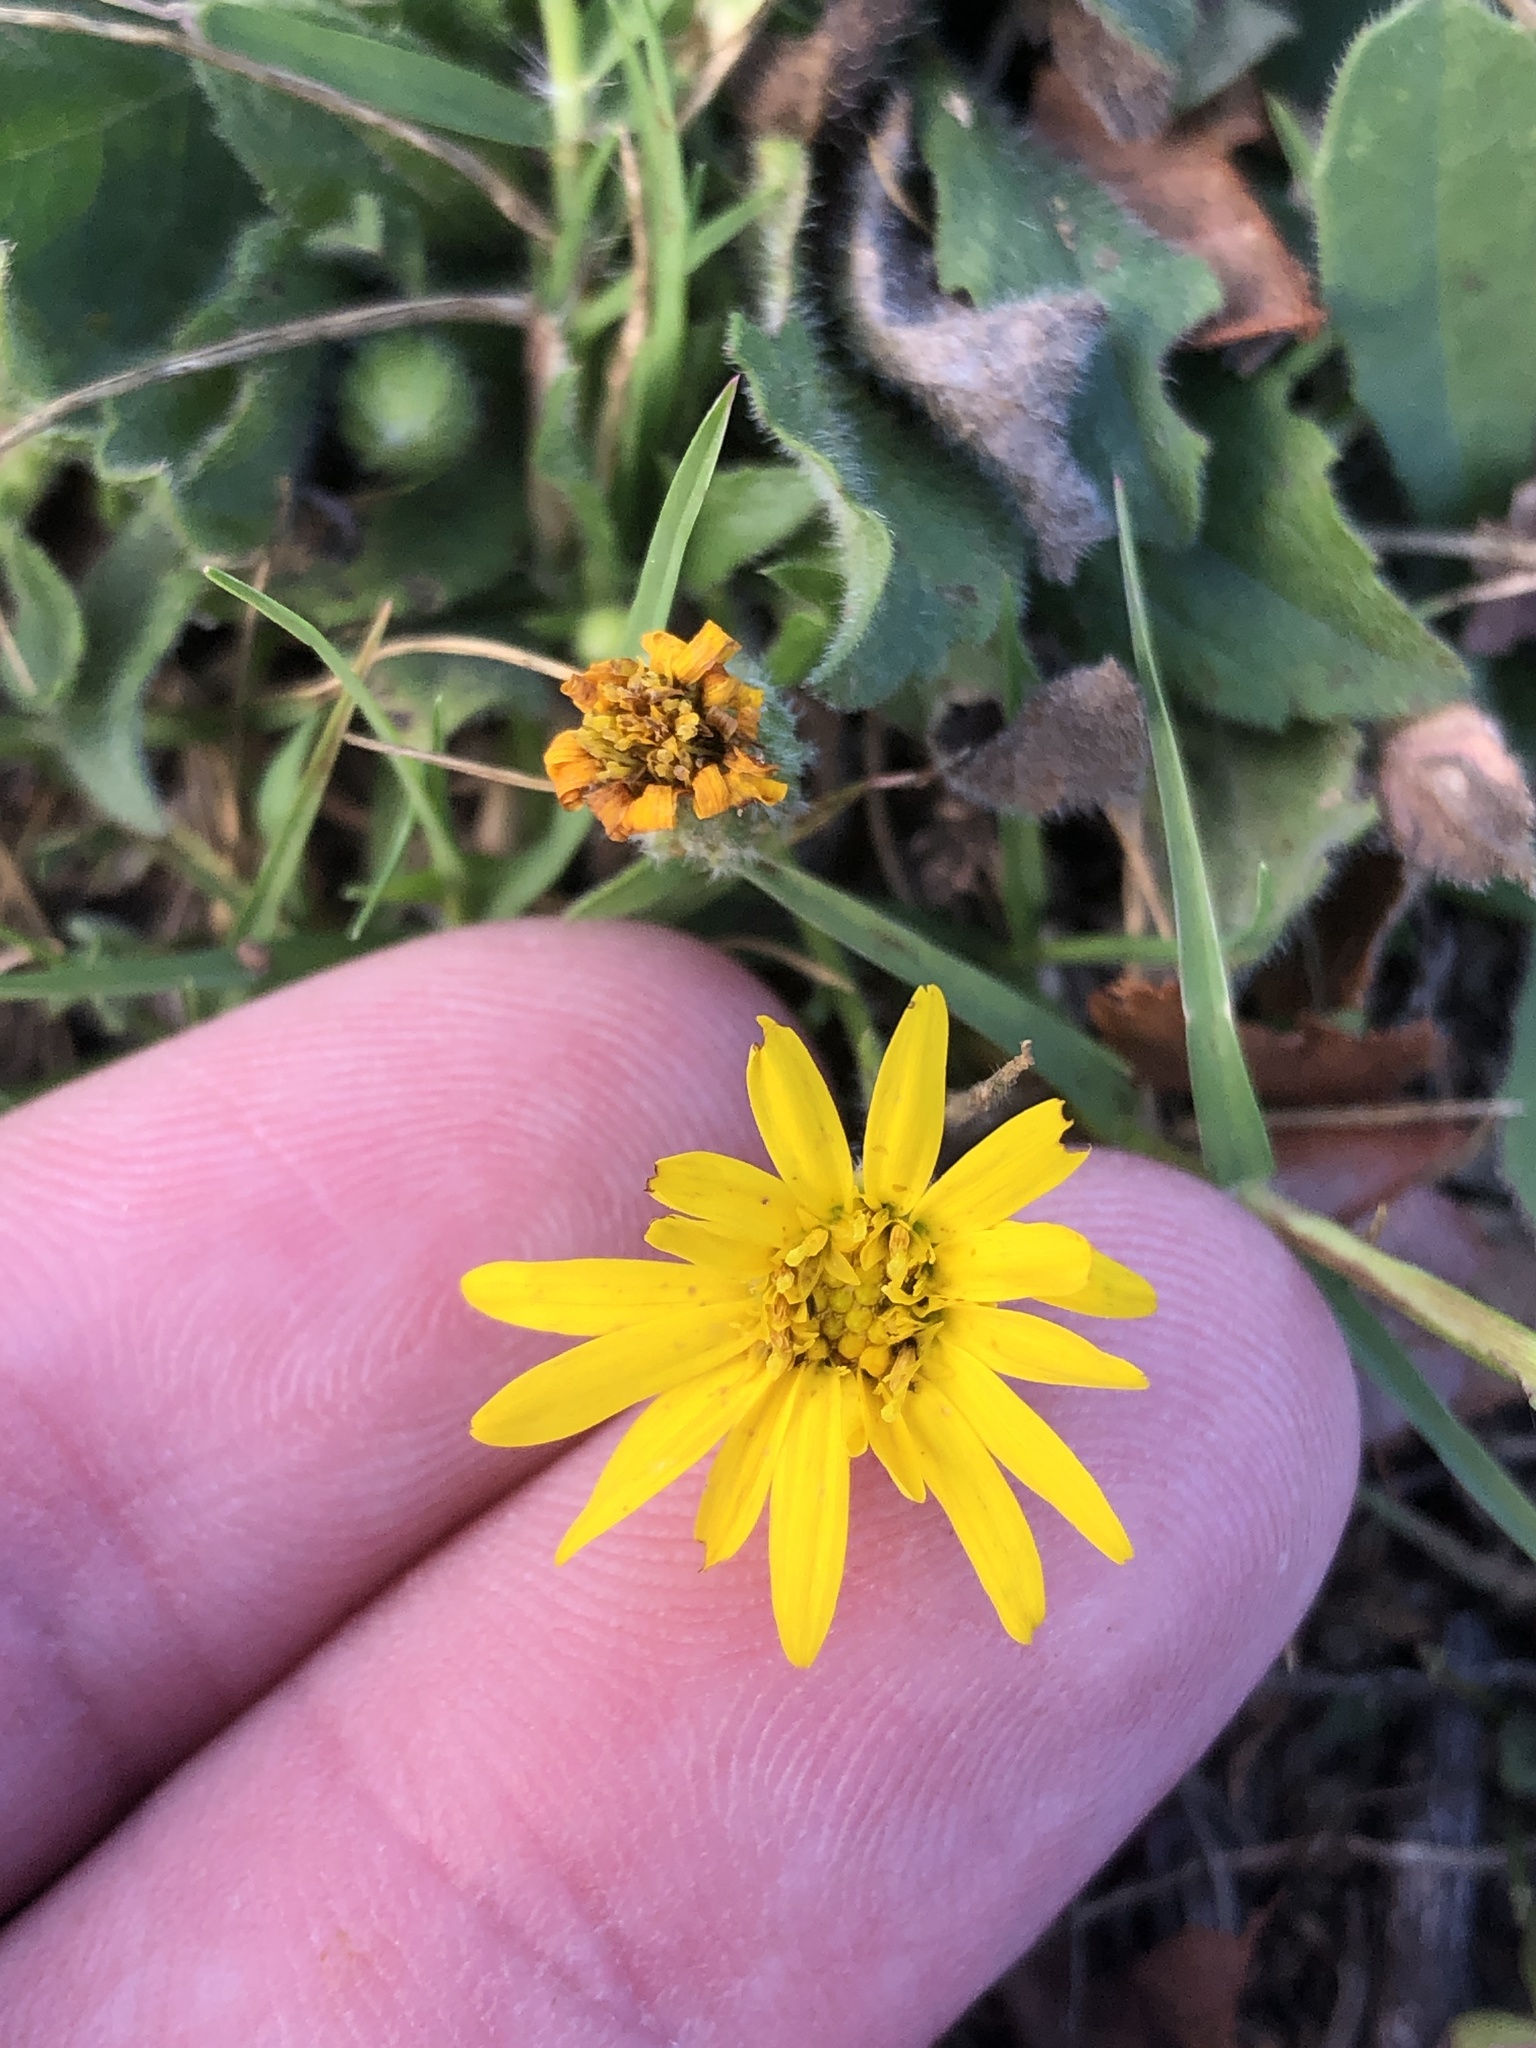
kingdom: Plantae
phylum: Tracheophyta
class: Magnoliopsida
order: Asterales
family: Asteraceae
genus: Heterotheca
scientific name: Heterotheca subaxillaris
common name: Camphorweed
